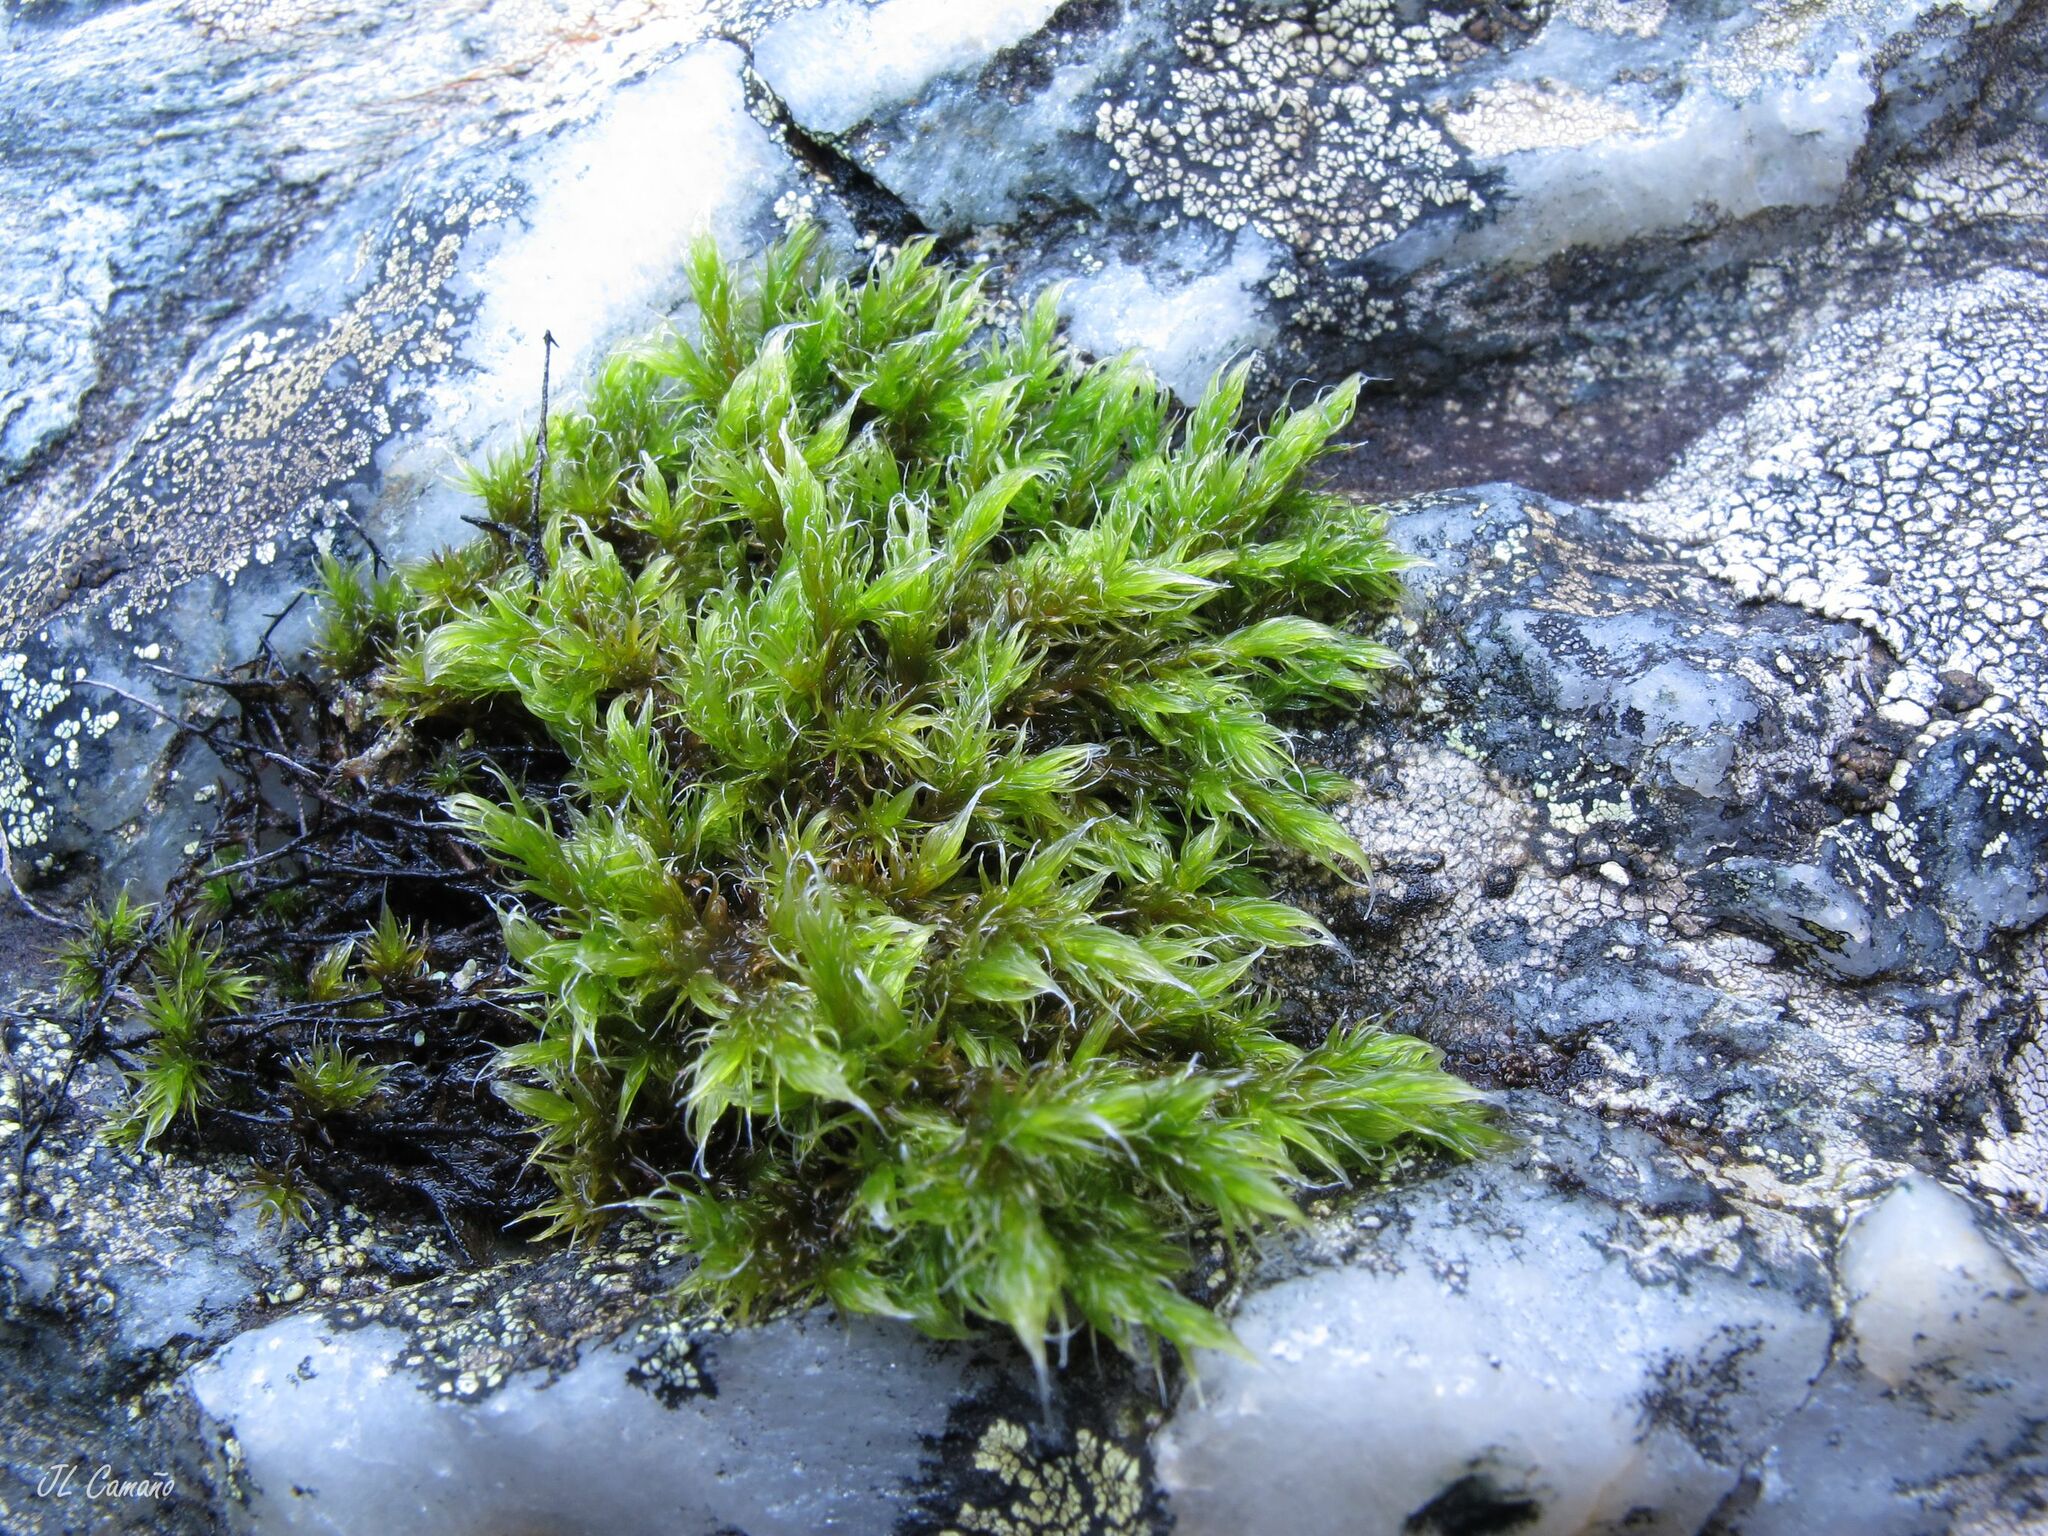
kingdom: Plantae
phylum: Bryophyta
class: Bryopsida
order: Grimmiales
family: Grimmiaceae
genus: Racomitrium
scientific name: Racomitrium lanuginosum
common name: Hoary rock moss
